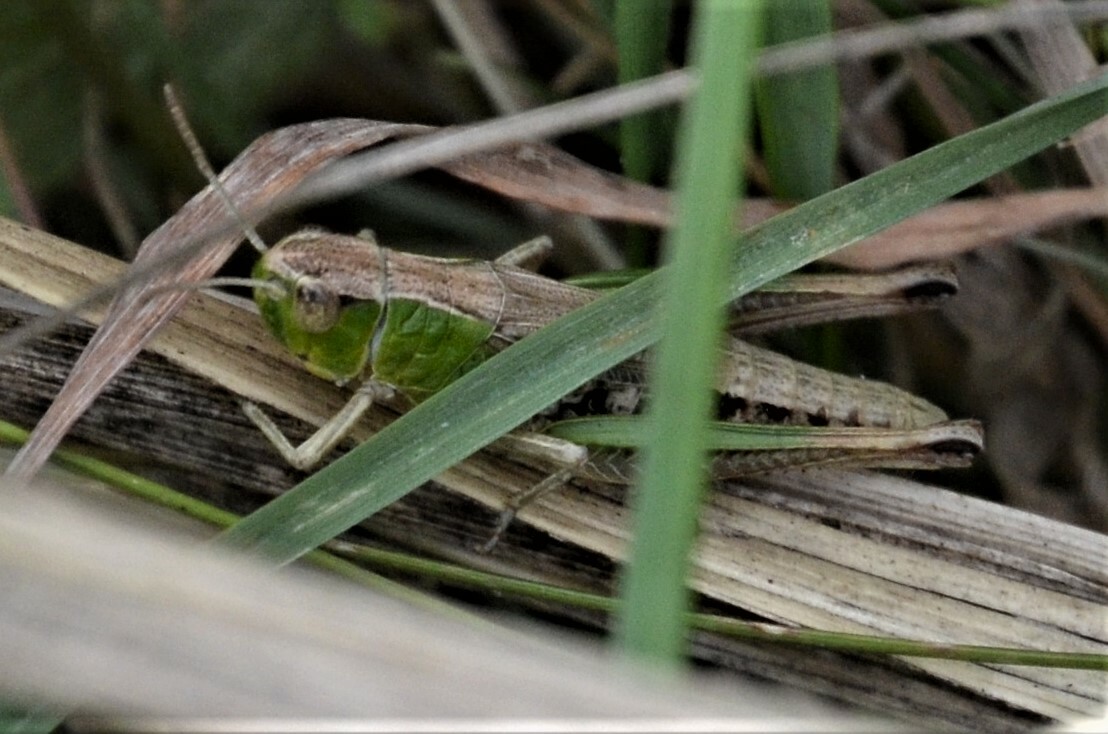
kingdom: Animalia
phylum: Arthropoda
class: Insecta
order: Orthoptera
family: Acrididae
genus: Pseudochorthippus
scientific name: Pseudochorthippus parallelus
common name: Meadow grasshopper
